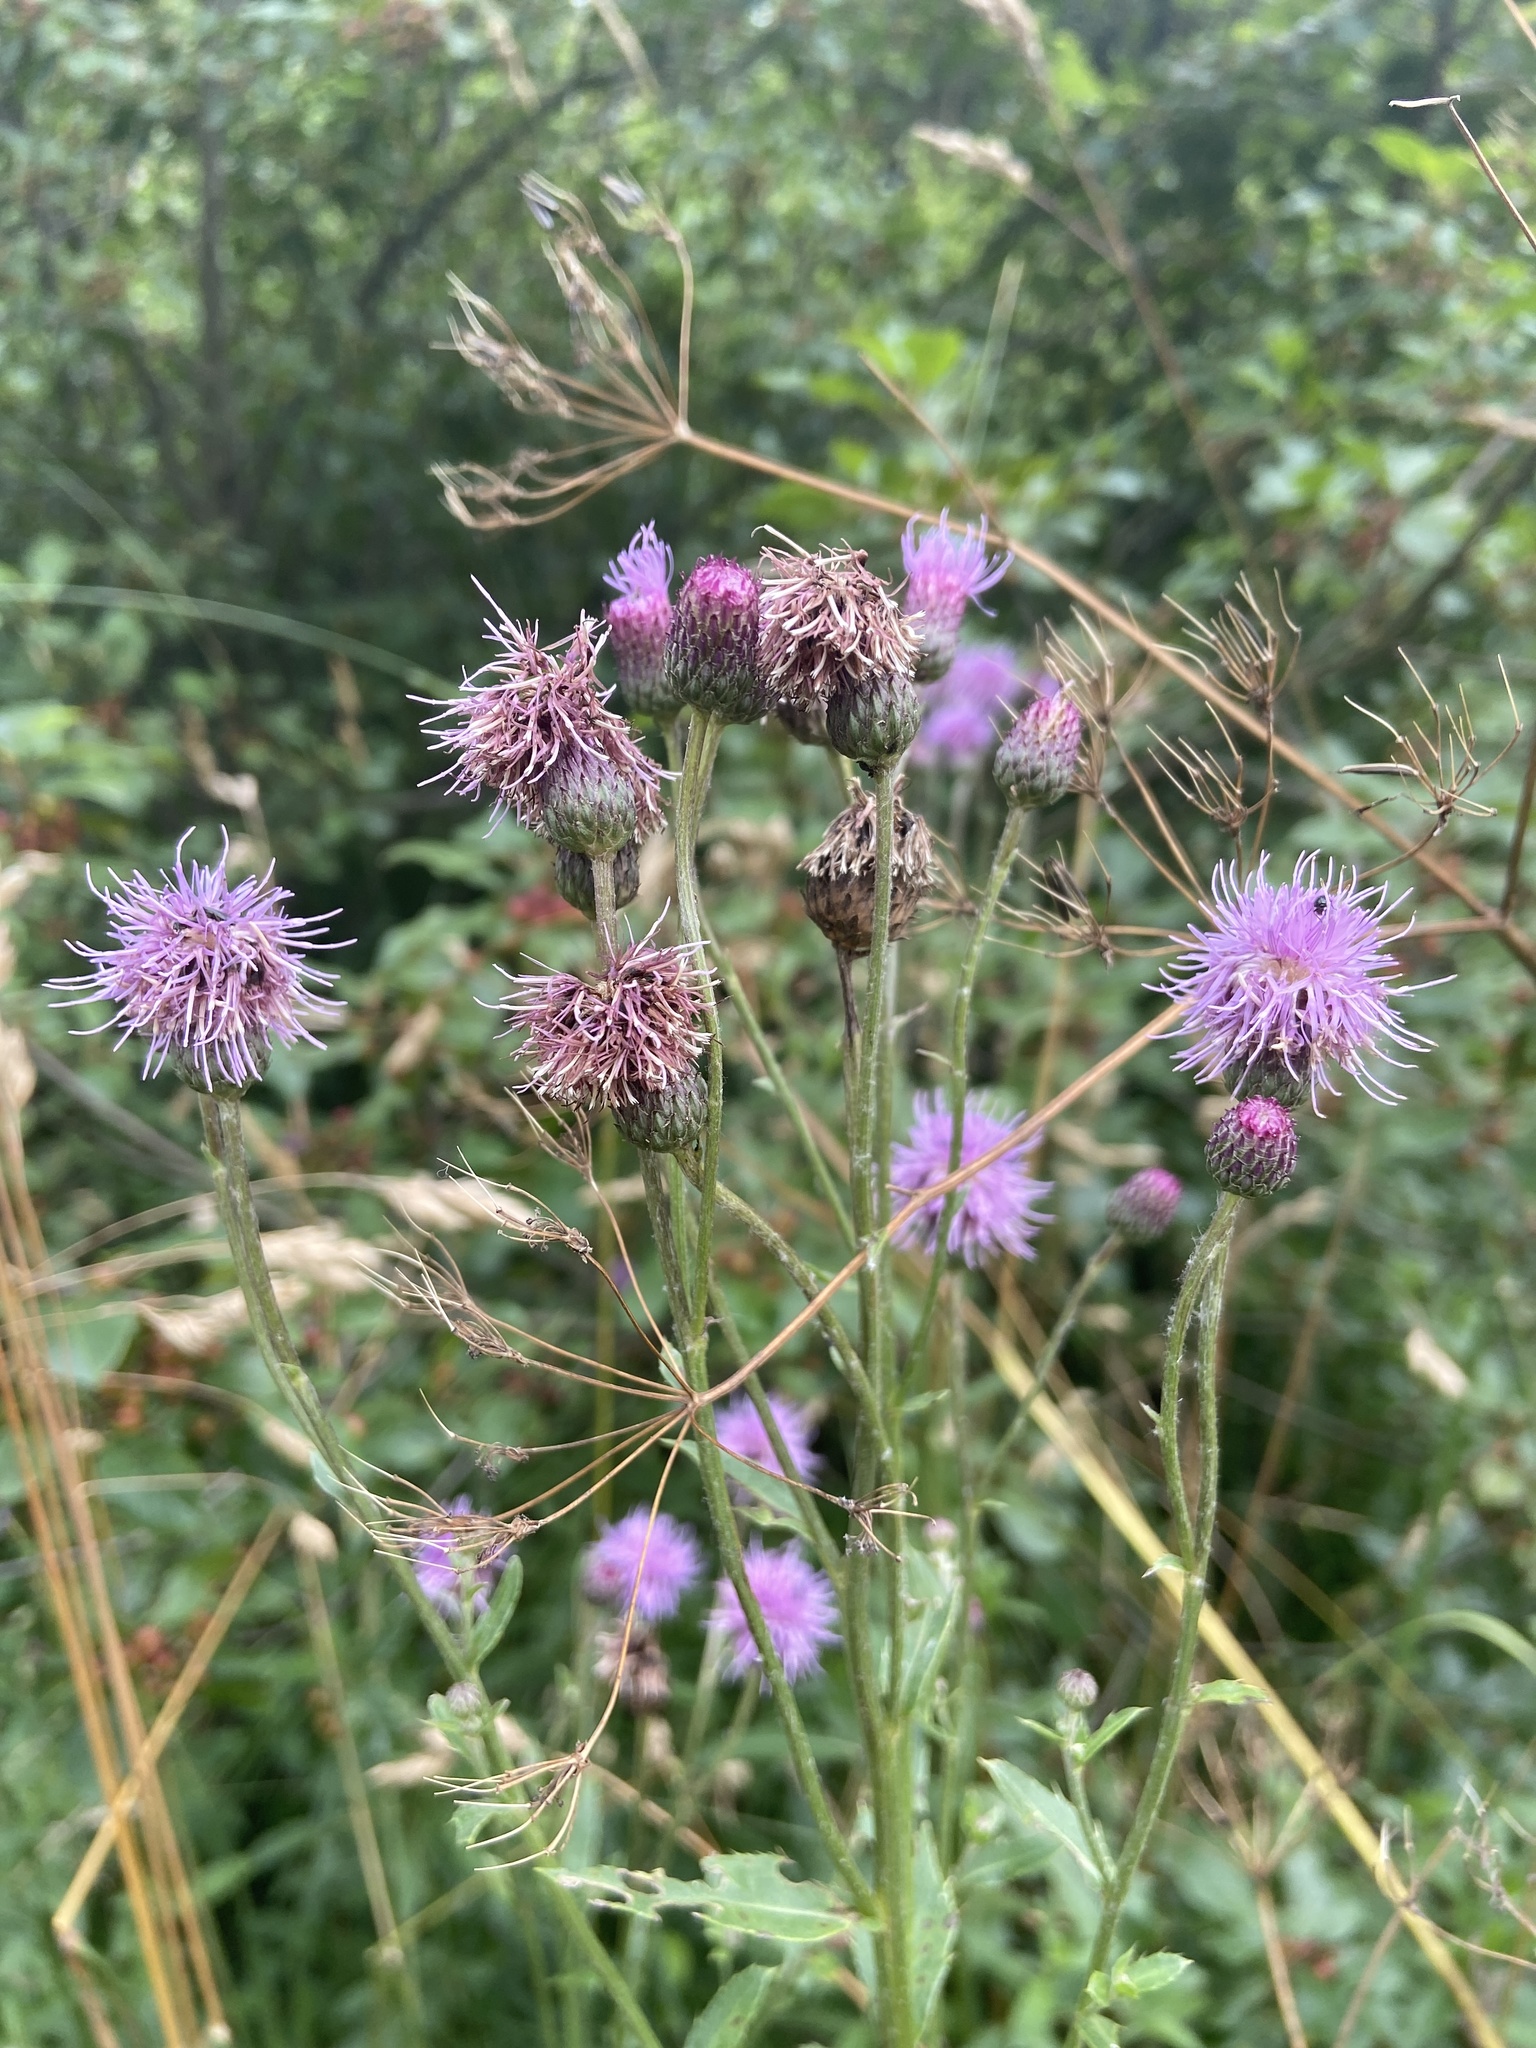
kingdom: Plantae
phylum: Tracheophyta
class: Magnoliopsida
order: Asterales
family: Asteraceae
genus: Cirsium
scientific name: Cirsium arvense
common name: Creeping thistle
